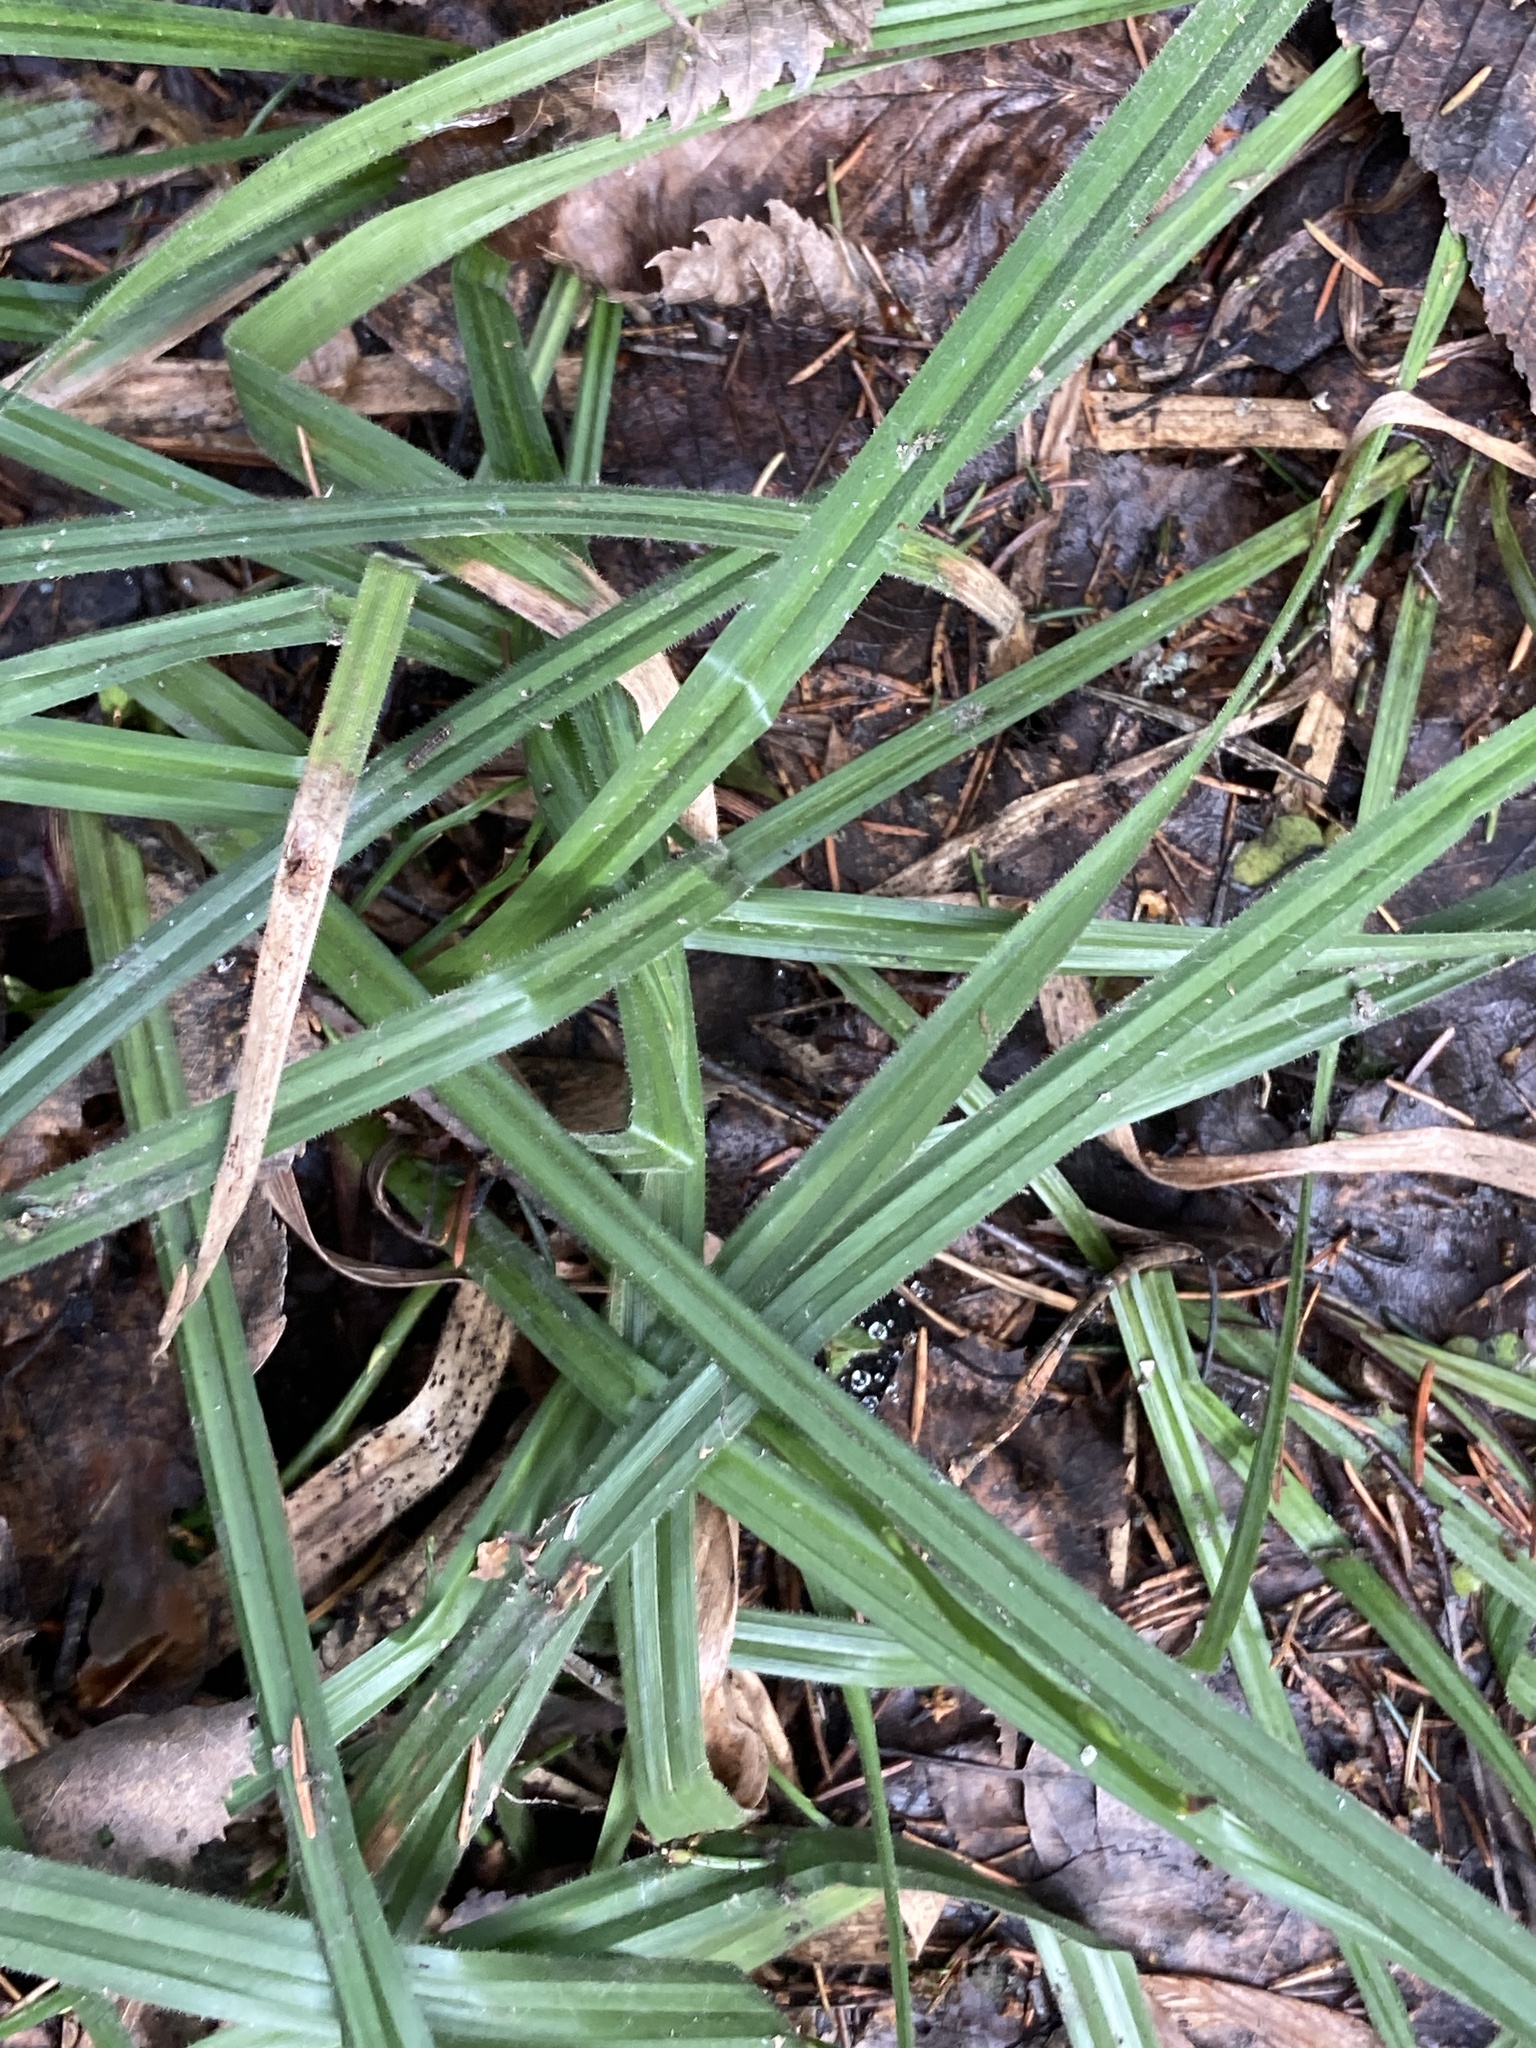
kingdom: Plantae
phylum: Tracheophyta
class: Liliopsida
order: Poales
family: Cyperaceae
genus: Carex
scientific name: Carex pilosa
